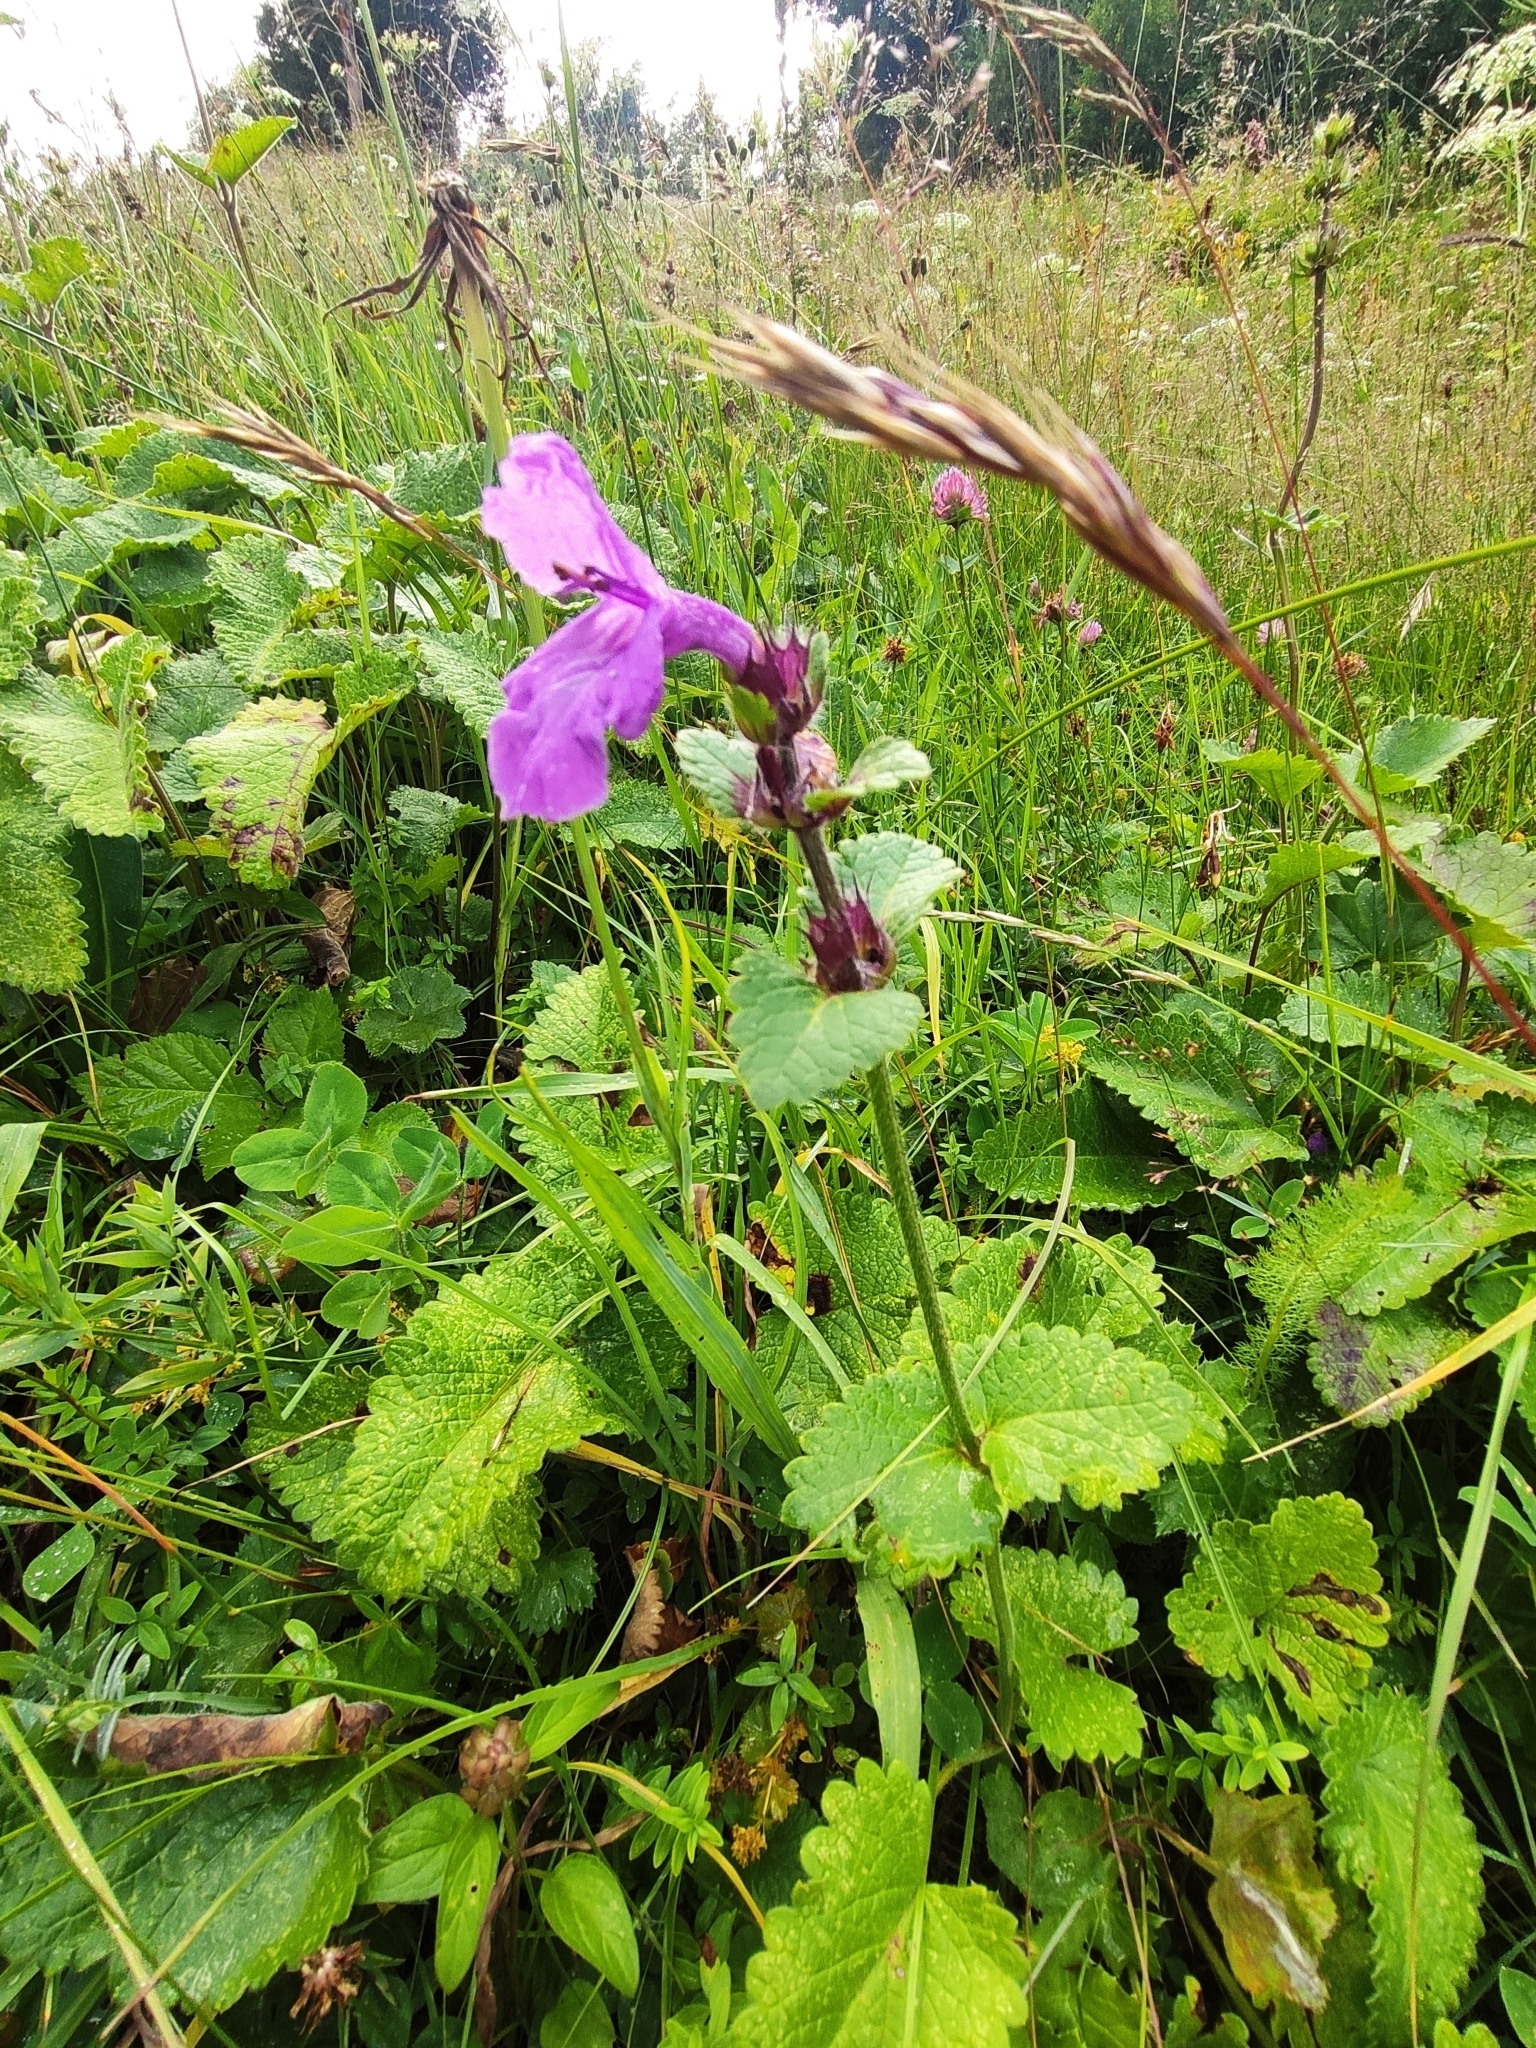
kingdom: Plantae
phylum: Tracheophyta
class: Magnoliopsida
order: Lamiales
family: Lamiaceae
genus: Betonica
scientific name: Betonica macrantha
